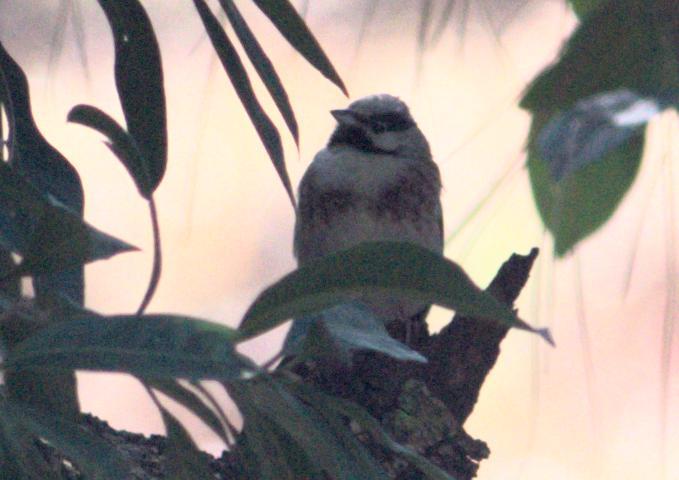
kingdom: Animalia
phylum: Chordata
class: Aves
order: Passeriformes
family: Emberizidae
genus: Emberiza
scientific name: Emberiza stewarti
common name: White-capped bunting
